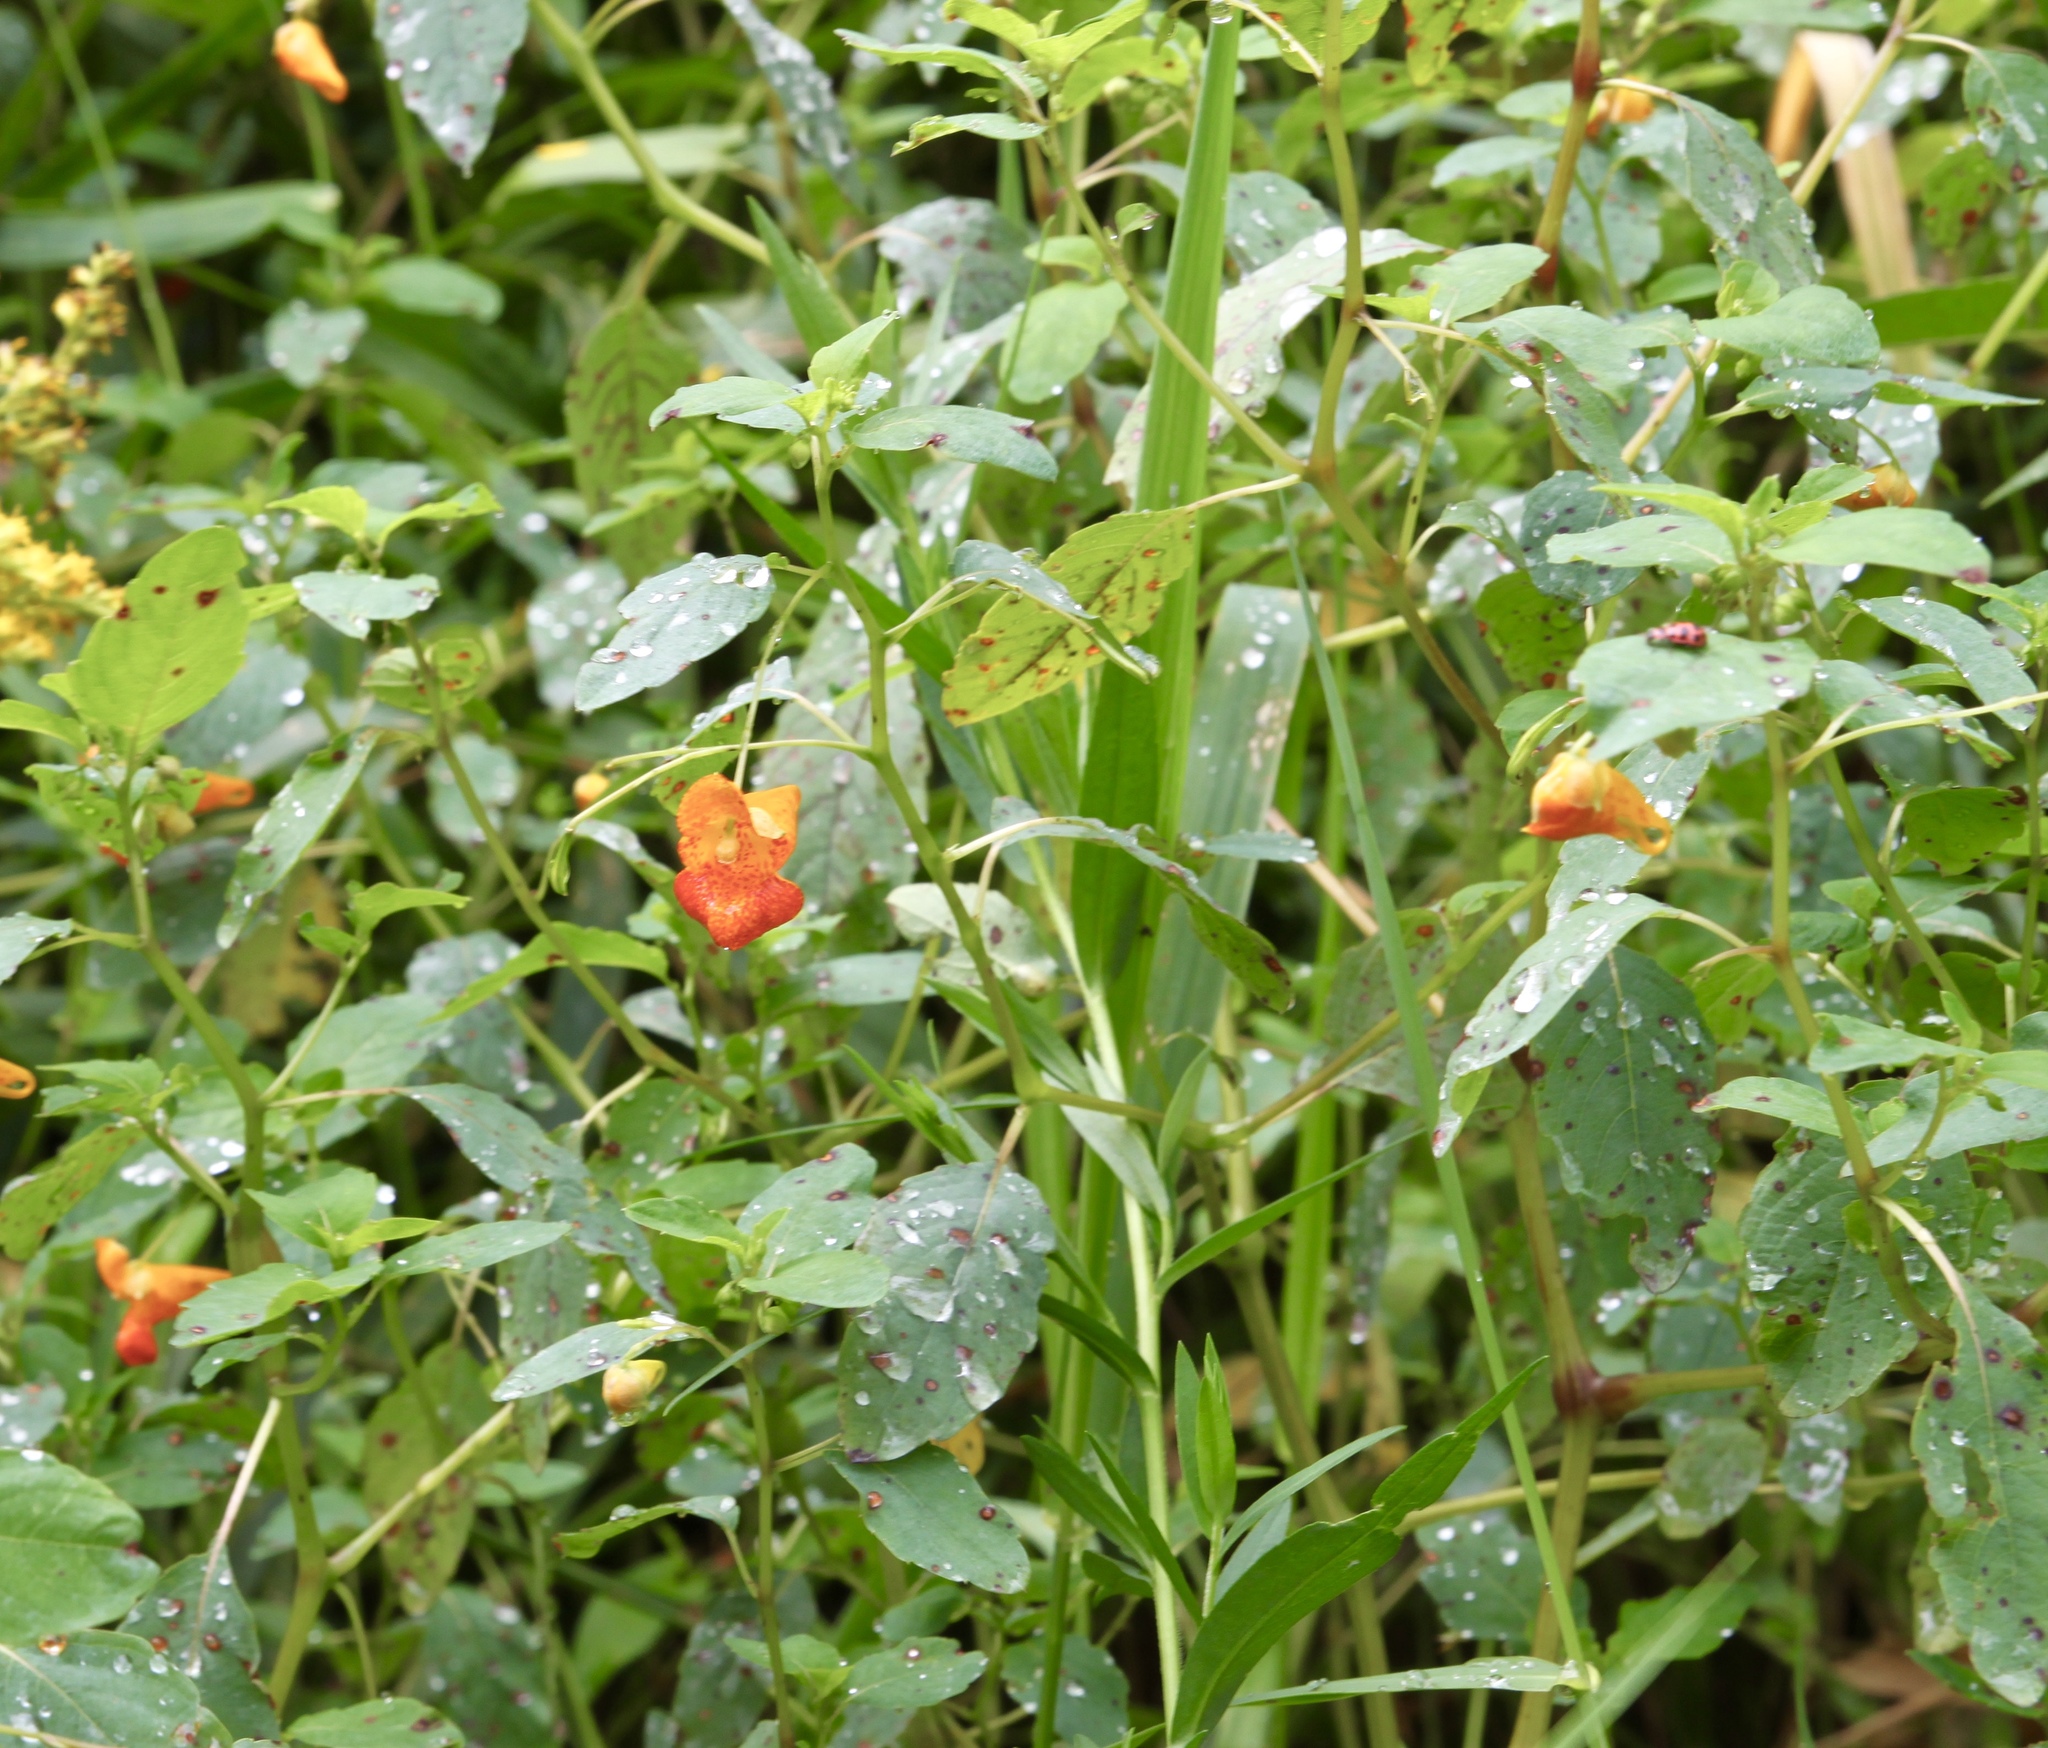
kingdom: Plantae
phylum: Tracheophyta
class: Magnoliopsida
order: Ericales
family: Balsaminaceae
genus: Impatiens
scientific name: Impatiens capensis
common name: Orange balsam
